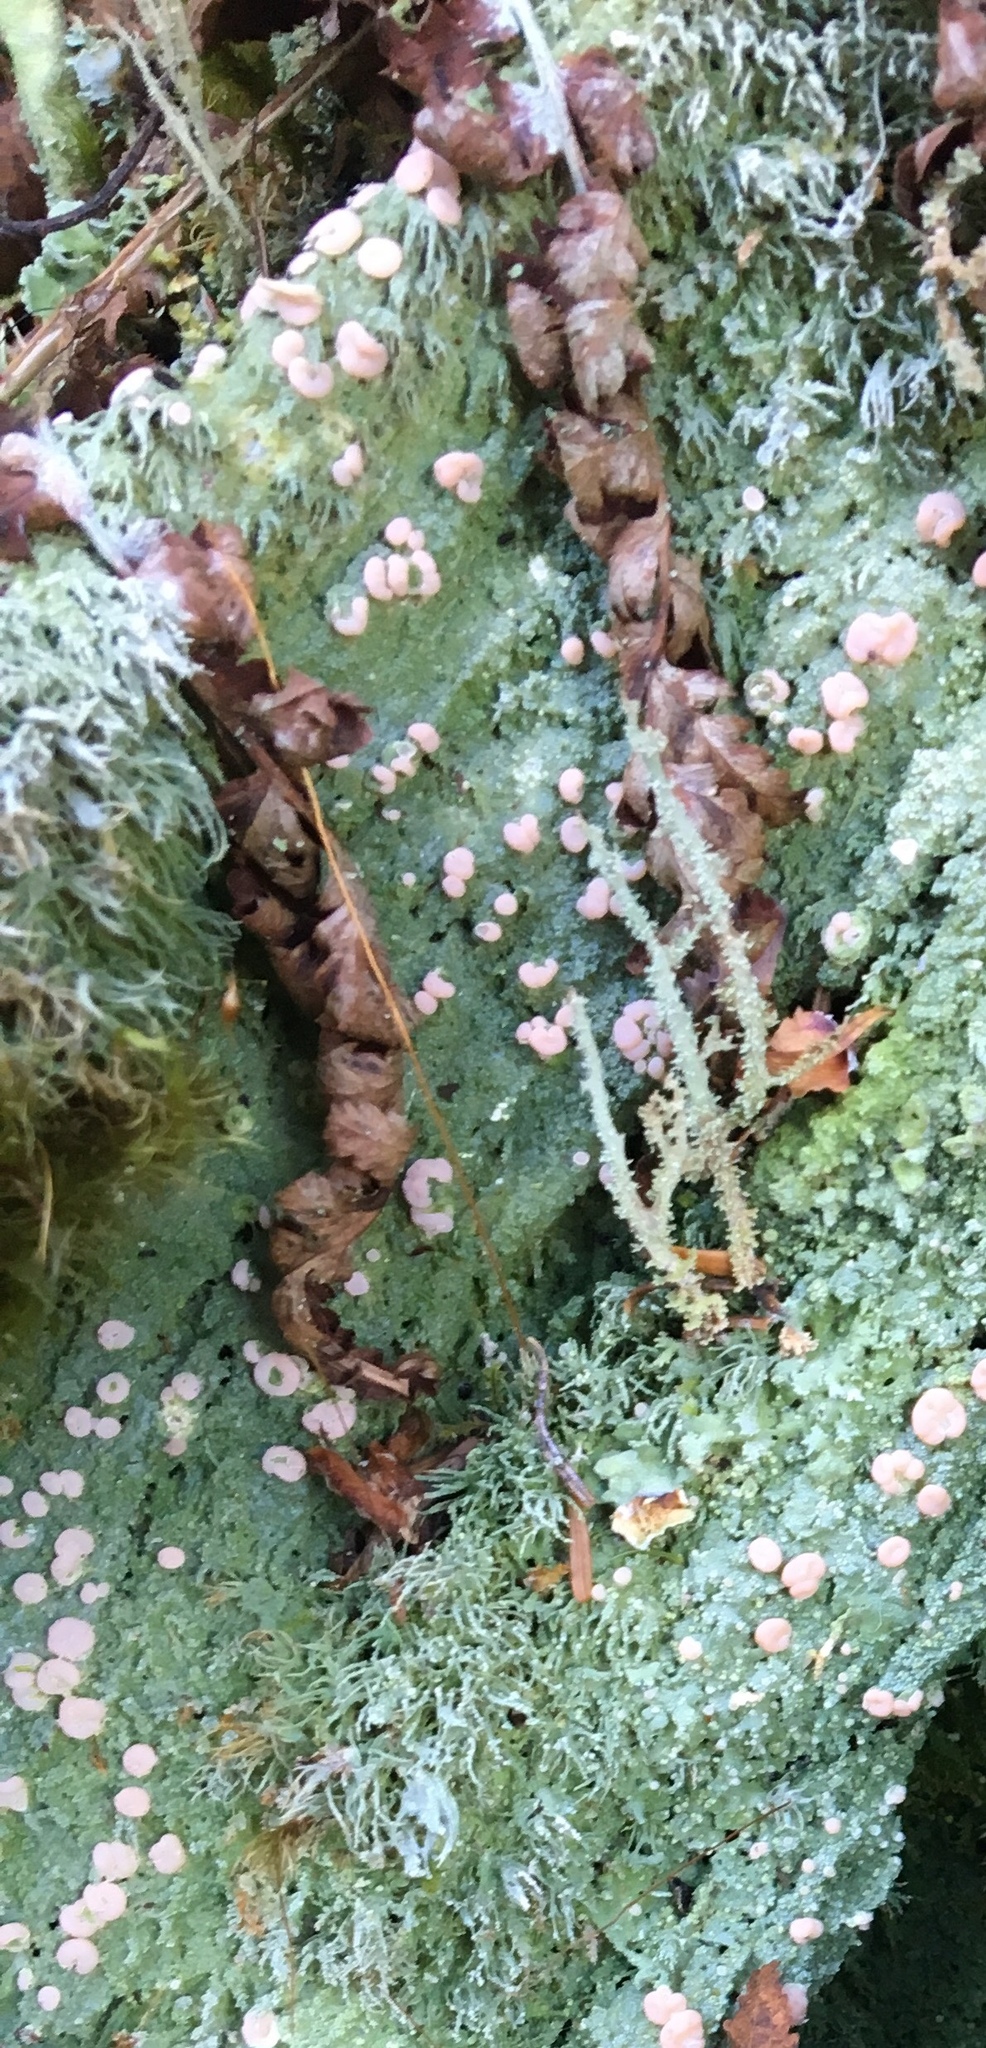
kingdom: Fungi
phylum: Ascomycota
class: Lecanoromycetes
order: Pertusariales
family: Icmadophilaceae
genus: Icmadophila
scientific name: Icmadophila ericetorum
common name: Candy lichen
